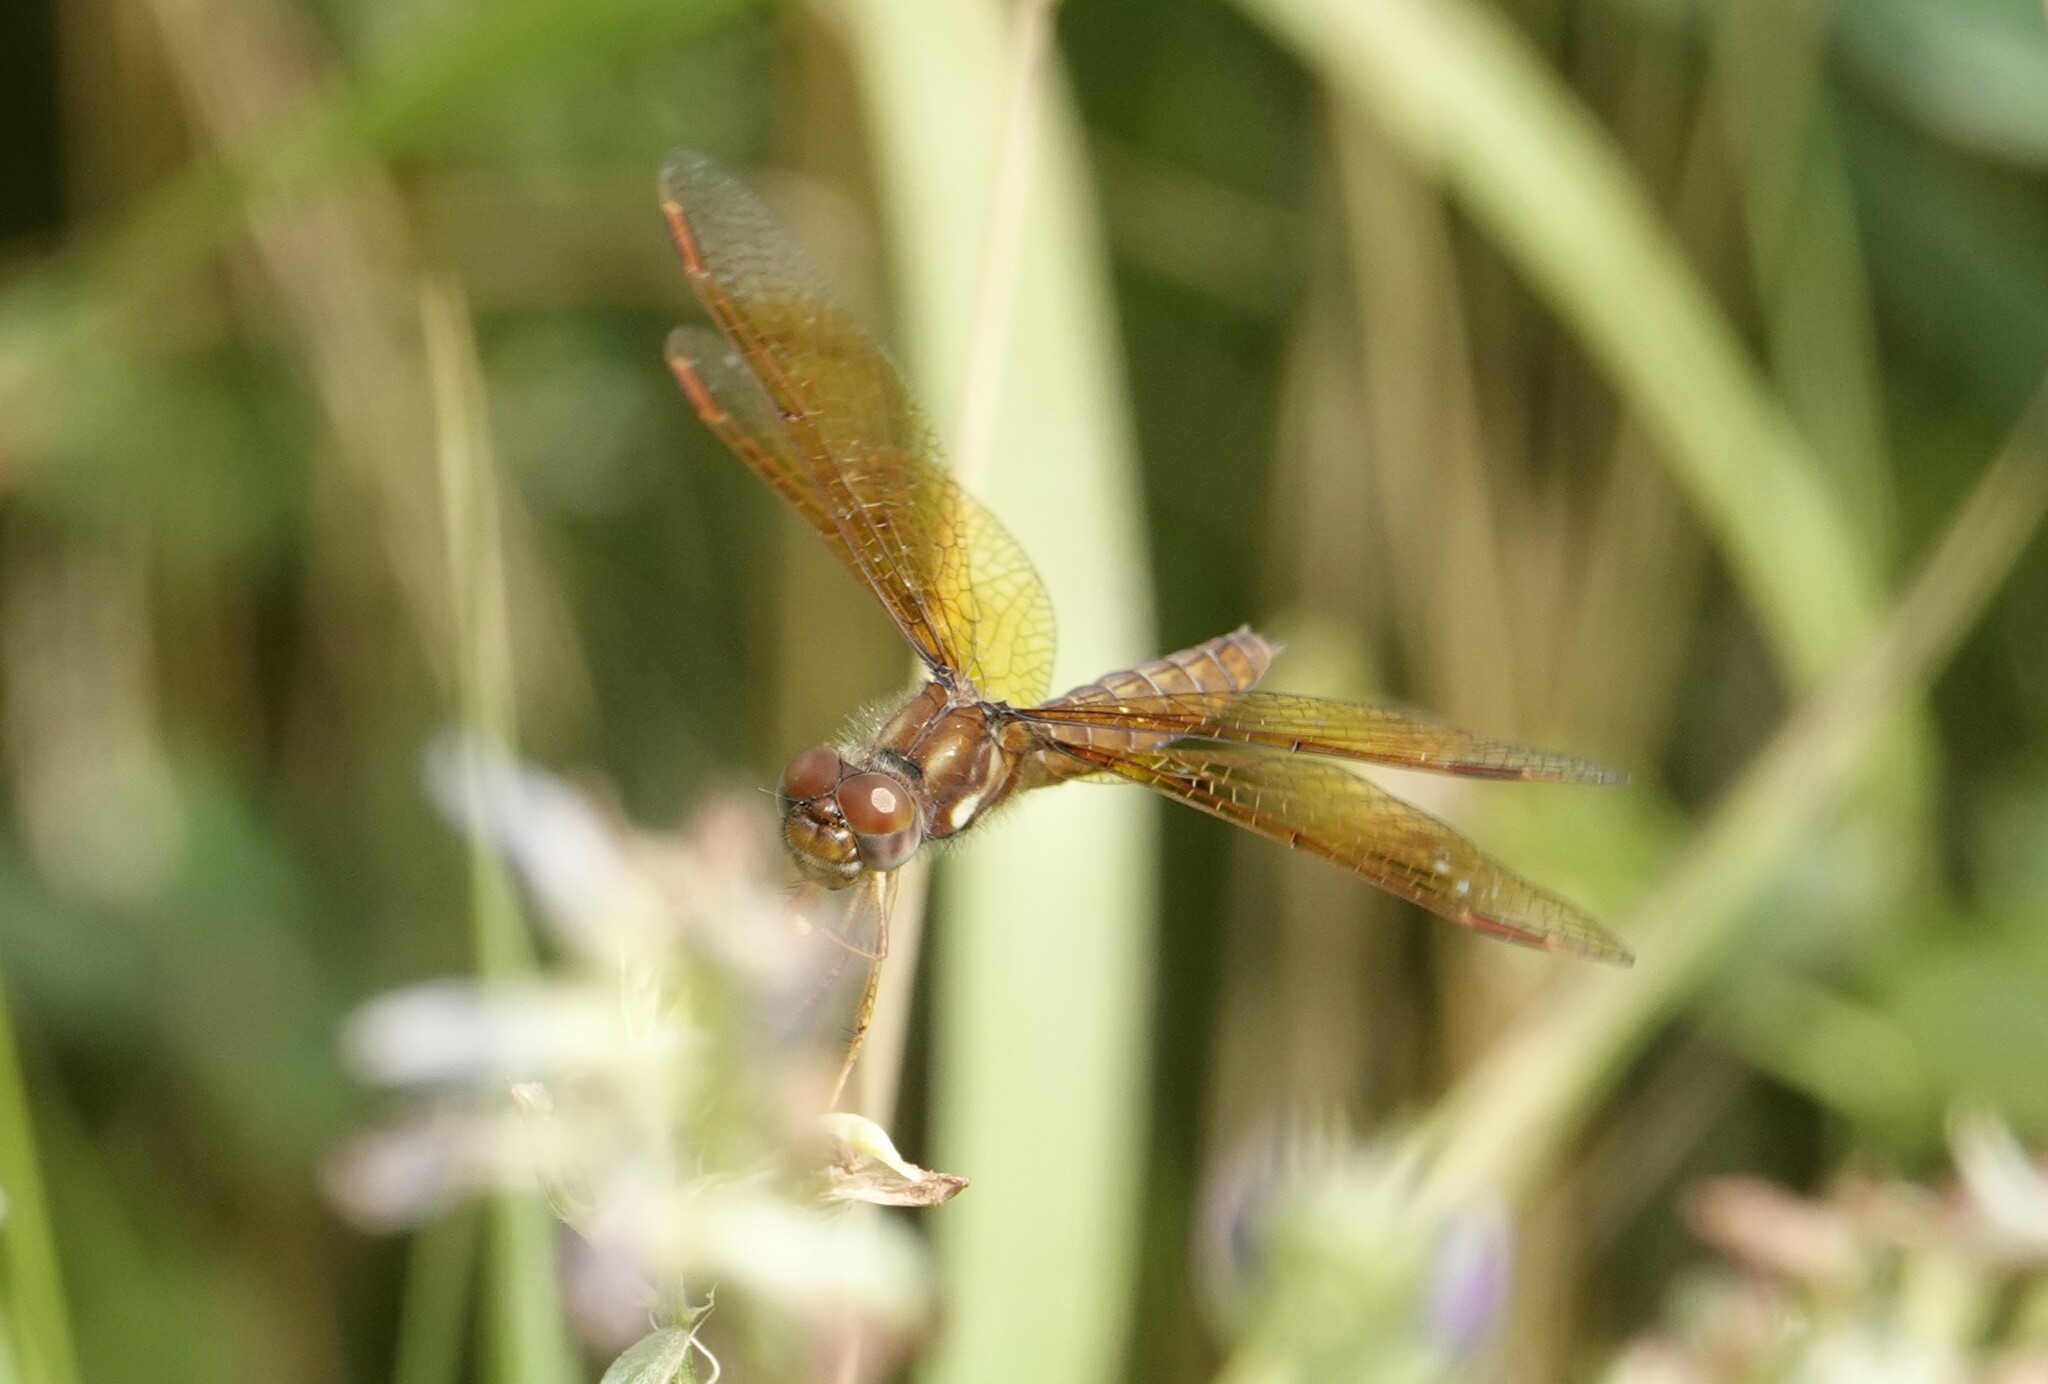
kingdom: Animalia
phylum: Arthropoda
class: Insecta
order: Odonata
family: Libellulidae
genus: Perithemis
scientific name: Perithemis tenera
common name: Eastern amberwing
